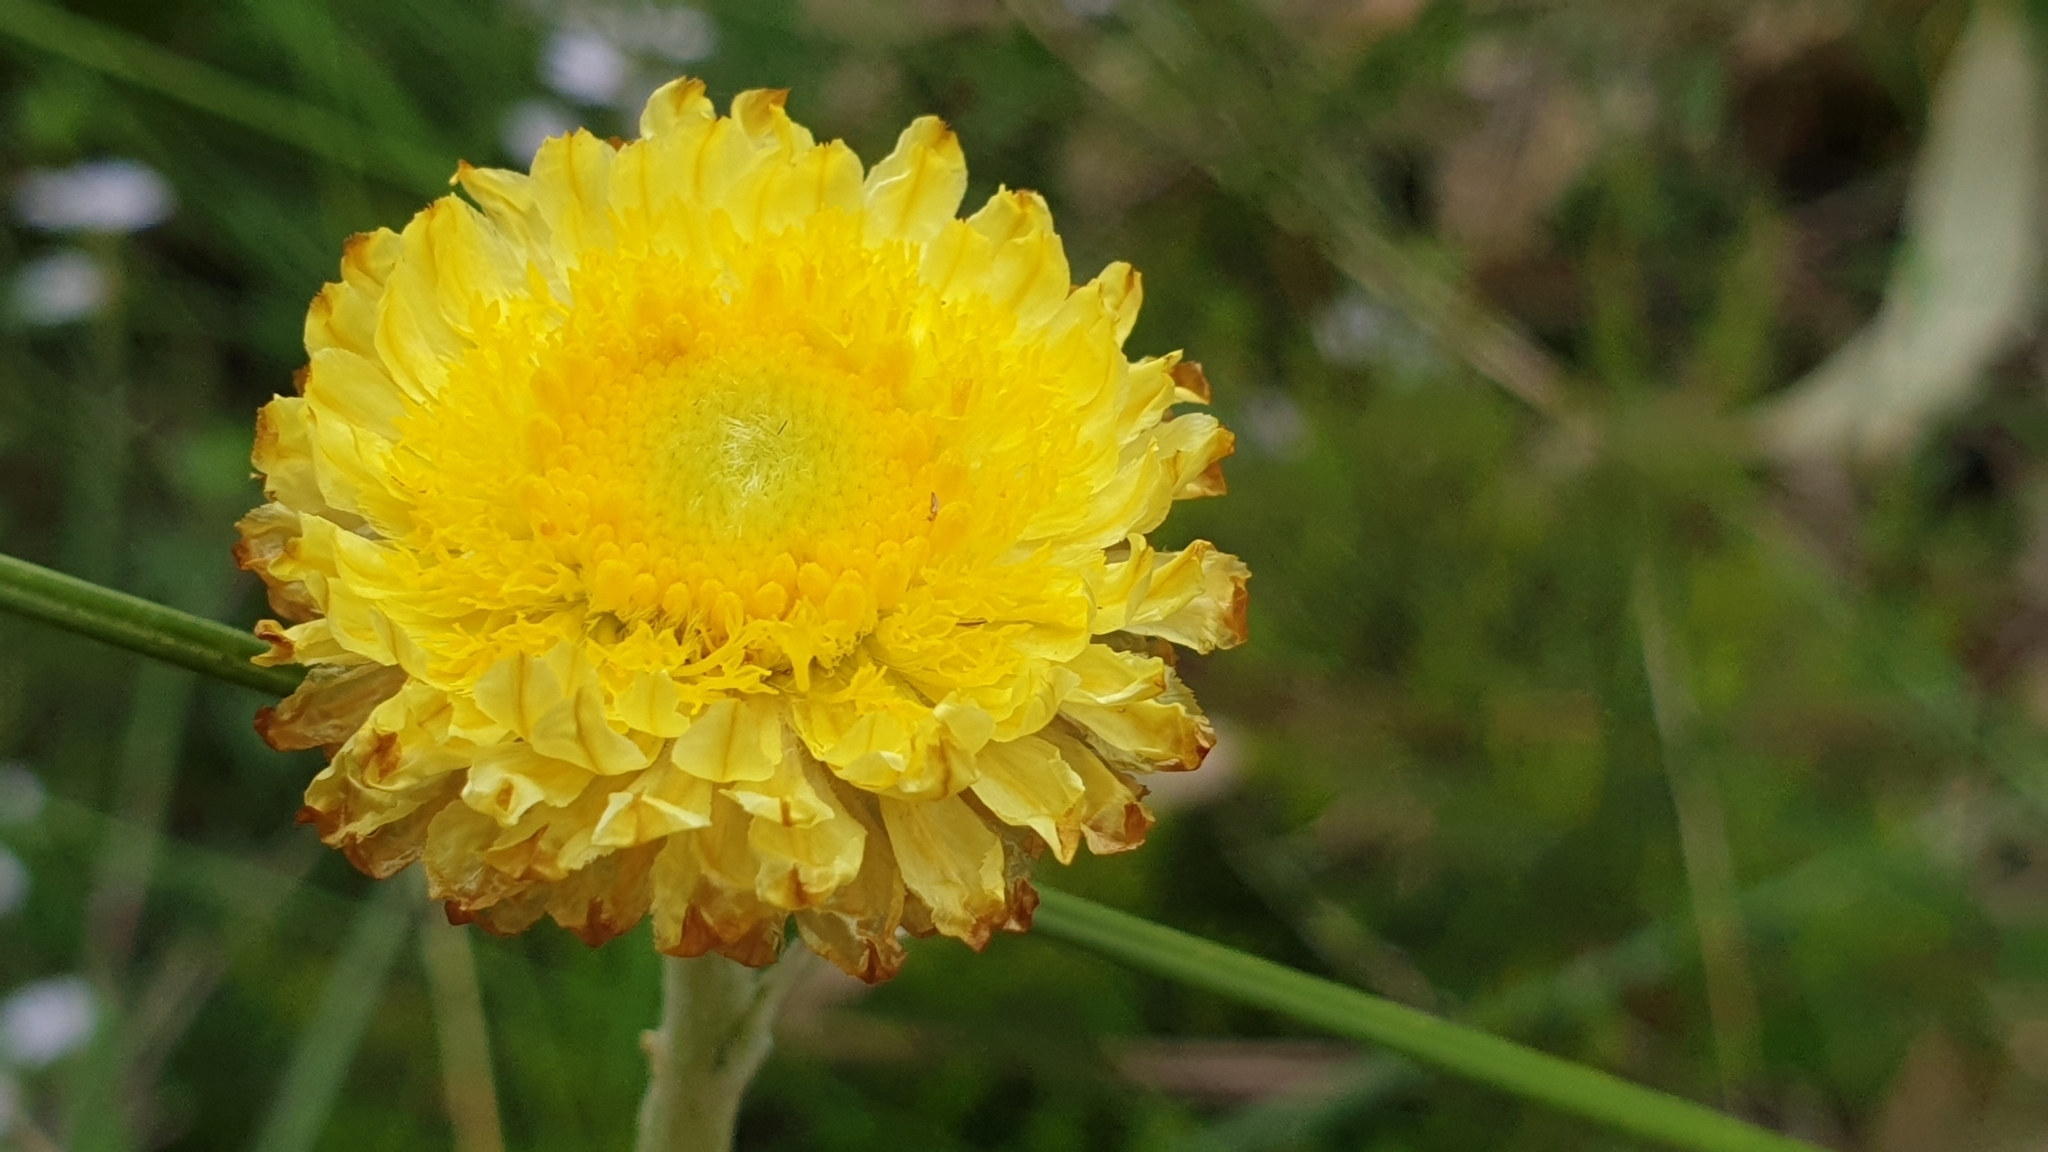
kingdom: Plantae
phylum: Tracheophyta
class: Magnoliopsida
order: Asterales
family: Asteraceae
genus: Coronidium
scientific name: Coronidium scorpioides
